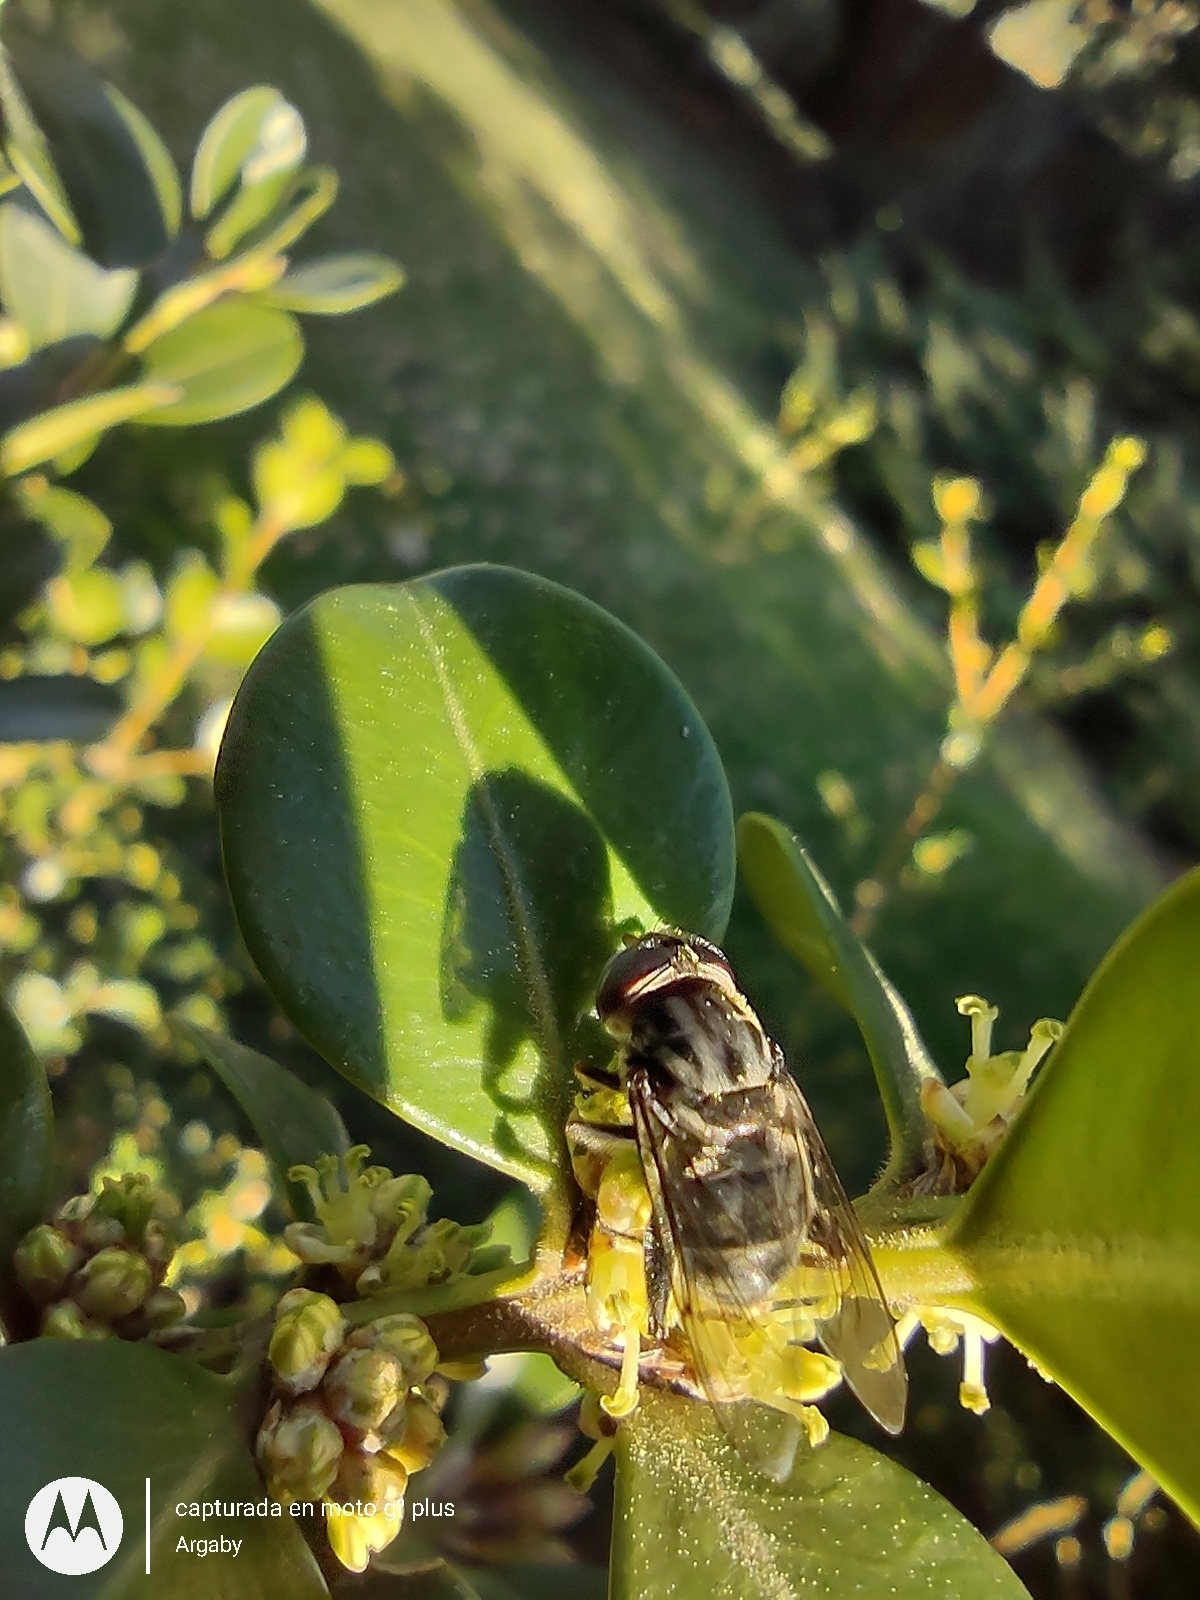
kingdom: Animalia
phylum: Arthropoda
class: Insecta
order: Diptera
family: Syrphidae
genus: Palpada
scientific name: Palpada furcata
